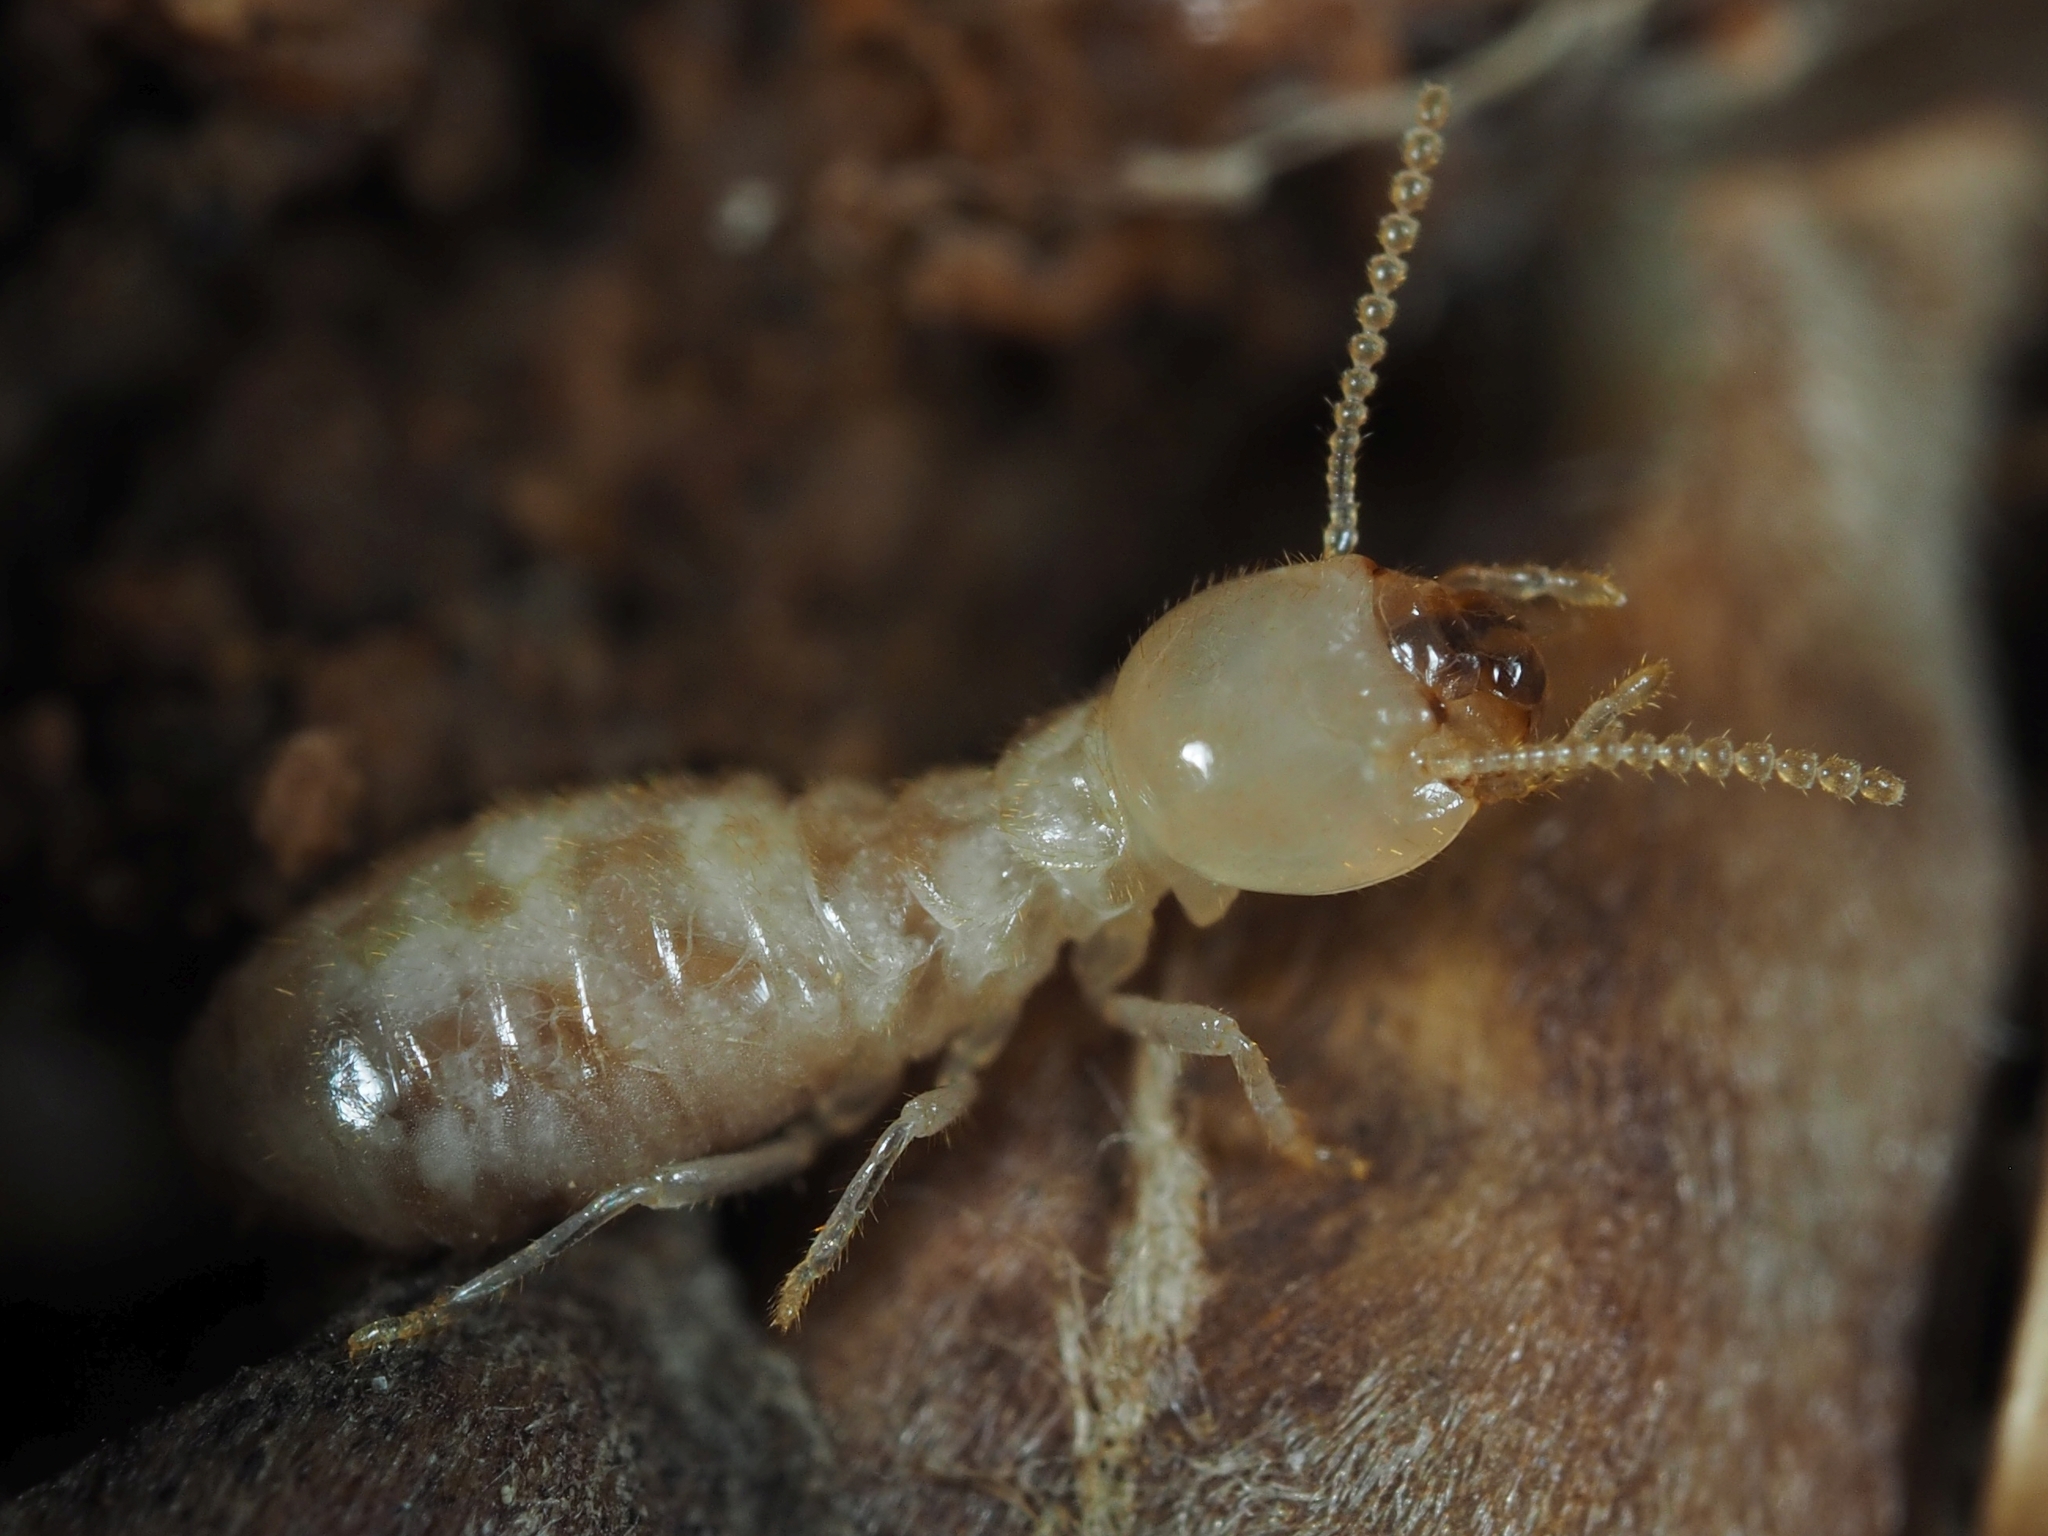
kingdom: Animalia
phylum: Arthropoda
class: Insecta
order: Blattodea
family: Rhinotermitidae
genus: Reticulitermes
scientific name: Reticulitermes lucifugus
